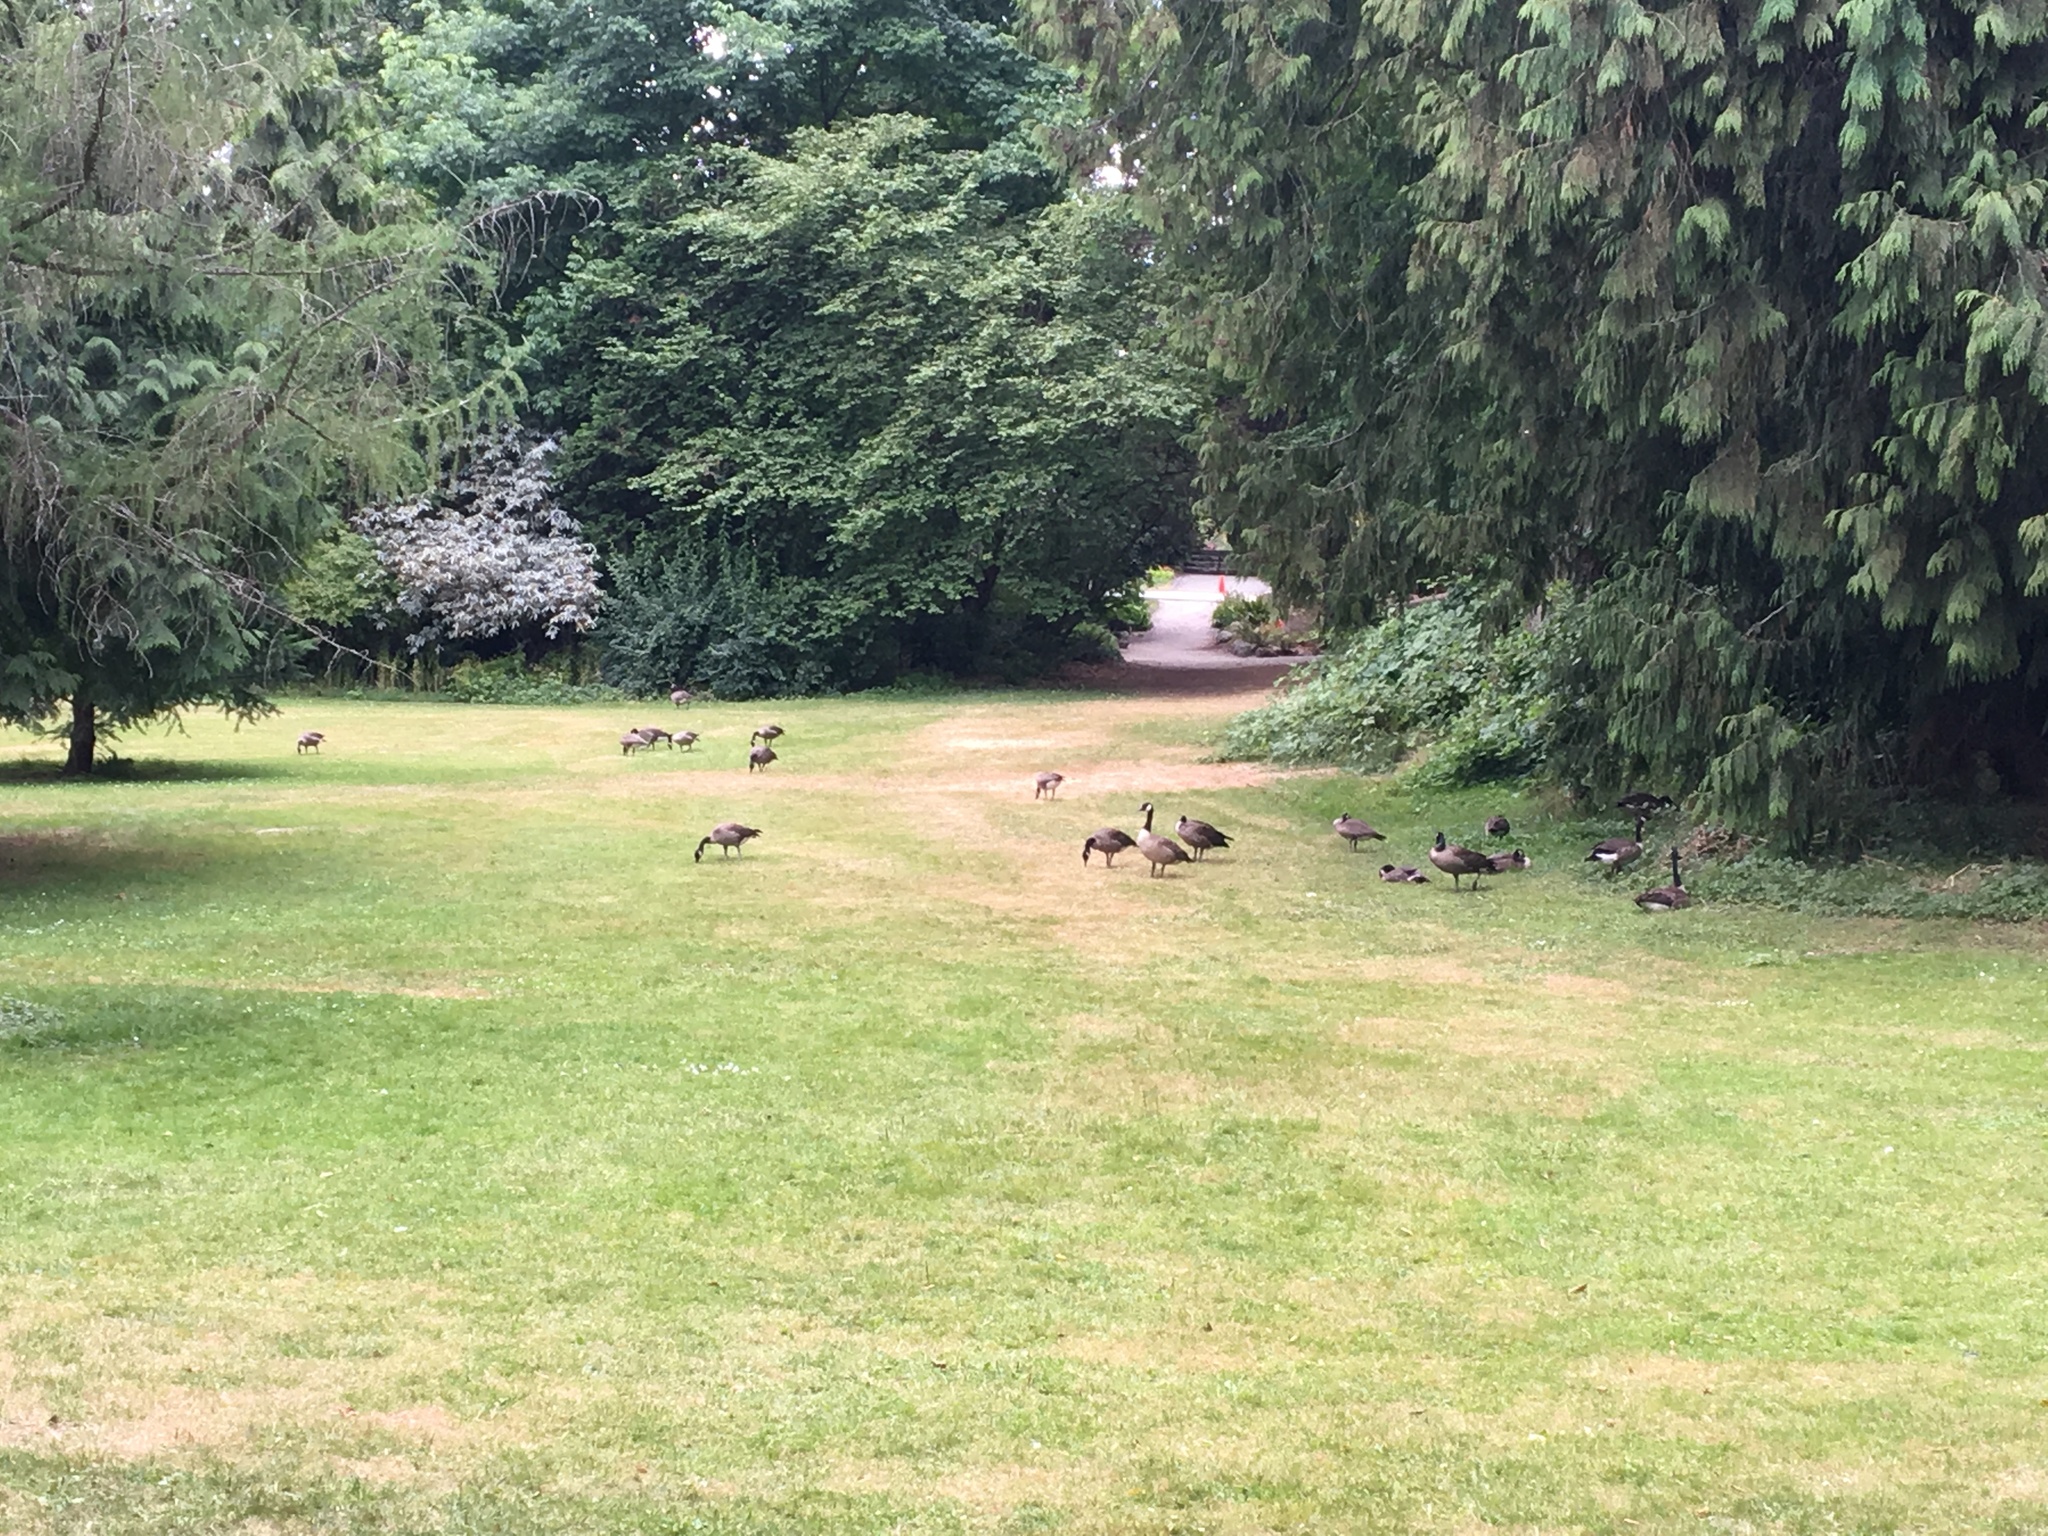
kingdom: Animalia
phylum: Chordata
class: Aves
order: Anseriformes
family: Anatidae
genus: Branta
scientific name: Branta canadensis
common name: Canada goose
